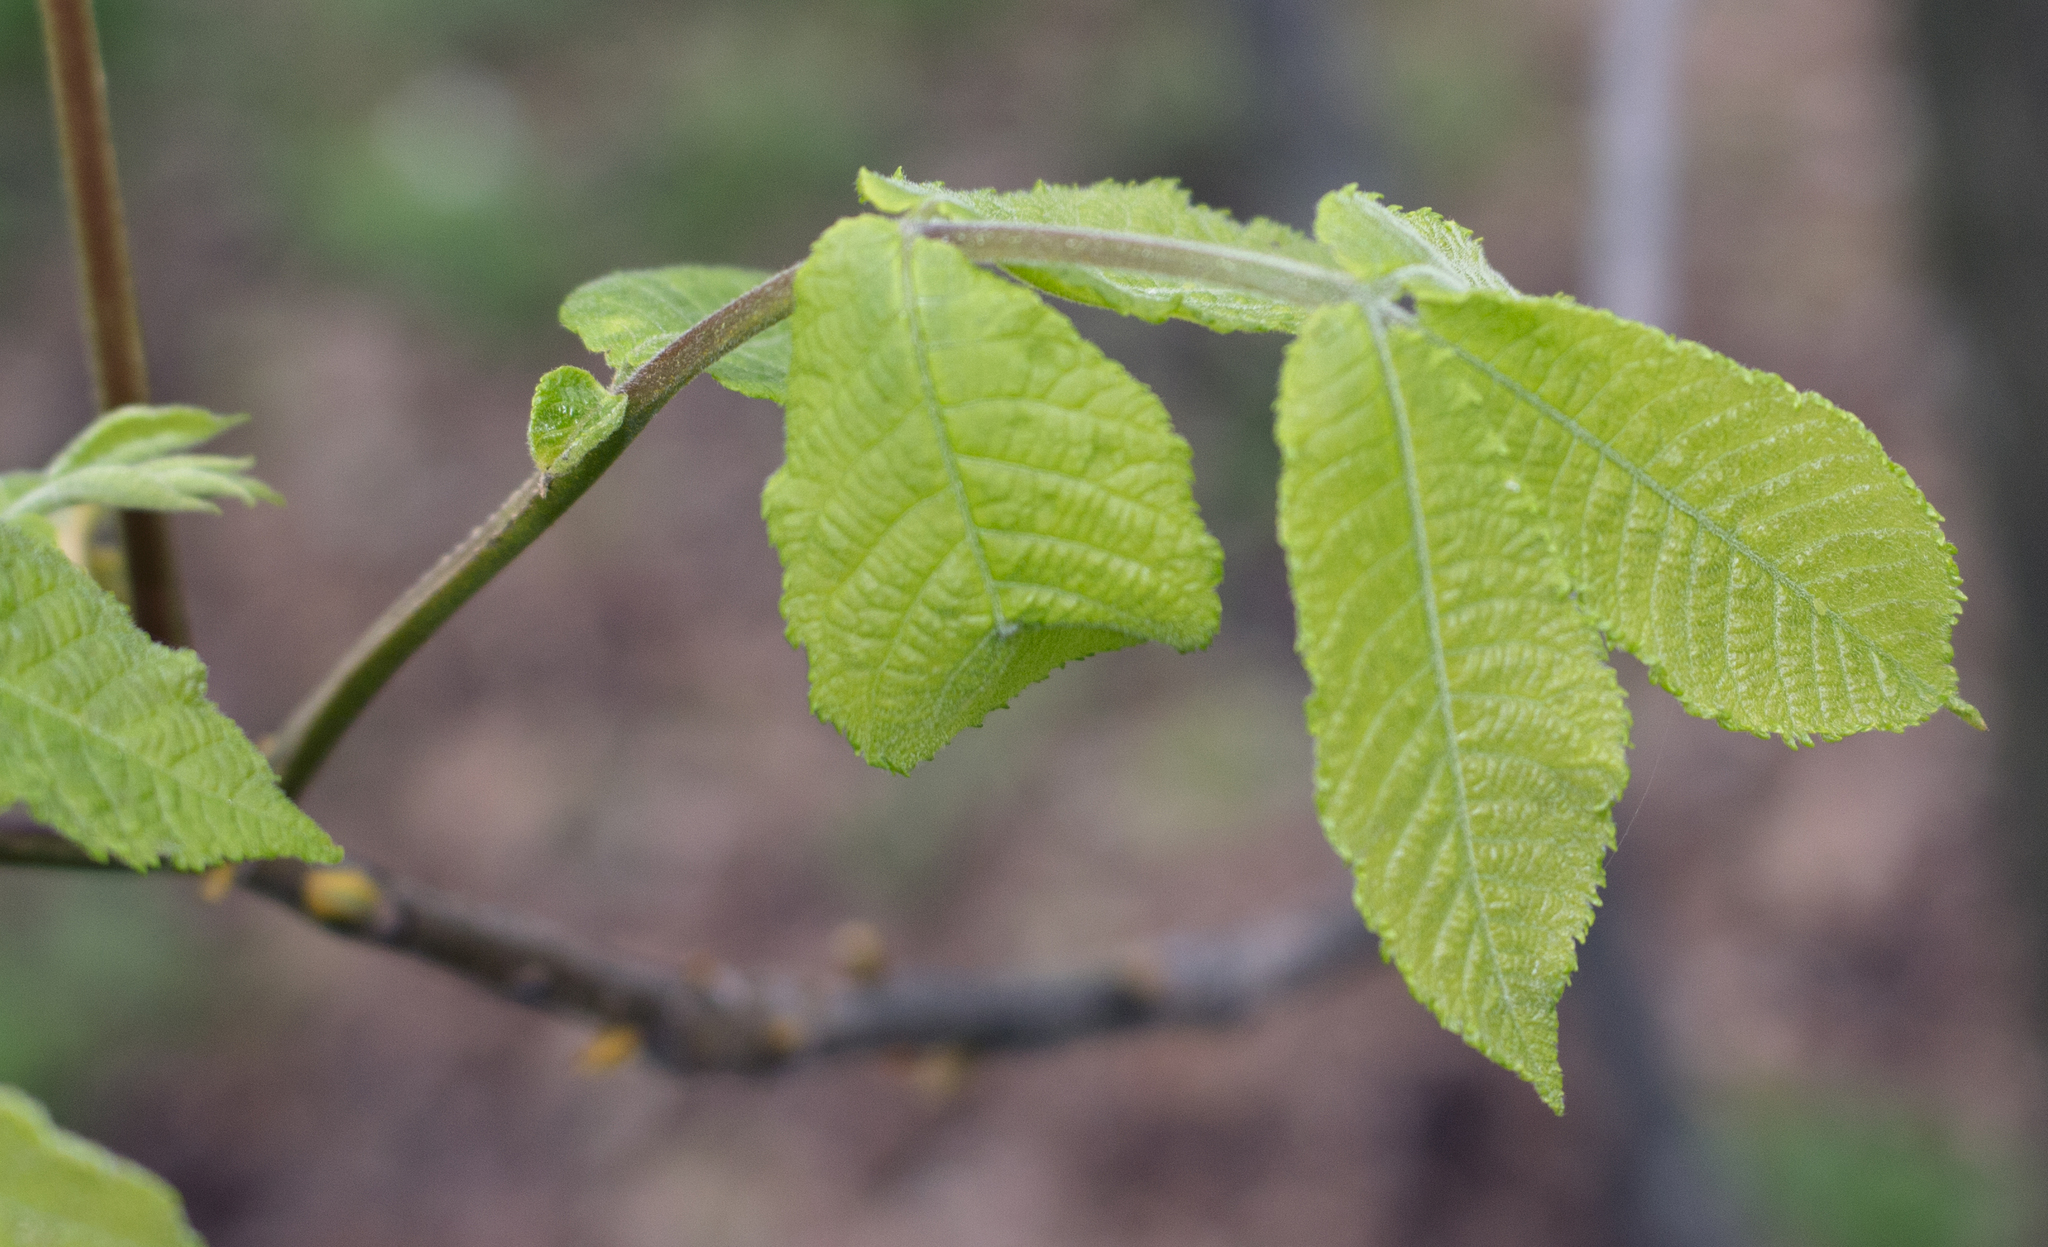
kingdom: Plantae
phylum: Tracheophyta
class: Magnoliopsida
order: Fagales
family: Juglandaceae
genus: Carya
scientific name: Carya cordiformis
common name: Bitternut hickory
